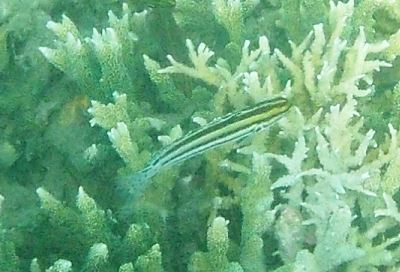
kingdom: Animalia
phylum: Chordata
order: Perciformes
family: Blenniidae
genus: Meiacanthus
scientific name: Meiacanthus grammistes
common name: Grammistes blenny
